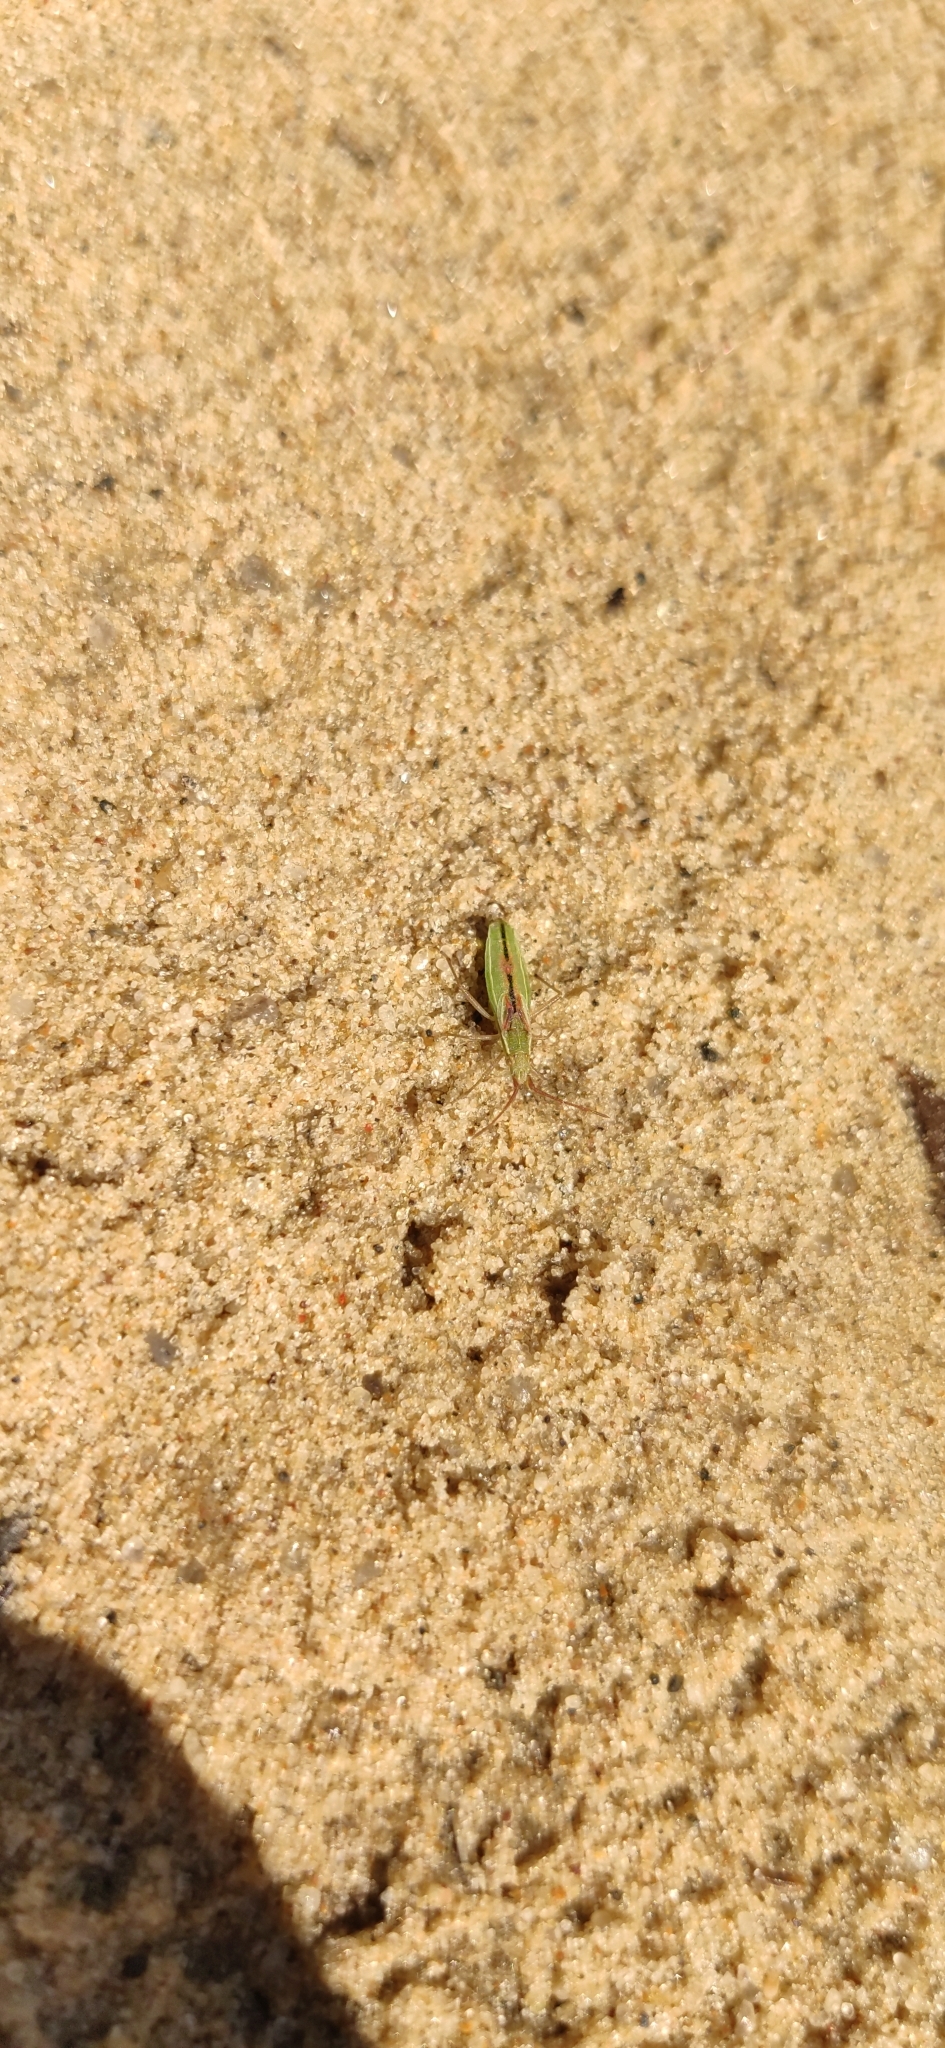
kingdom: Animalia
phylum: Arthropoda
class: Insecta
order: Hemiptera
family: Rhopalidae
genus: Myrmus
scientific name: Myrmus miriformis
